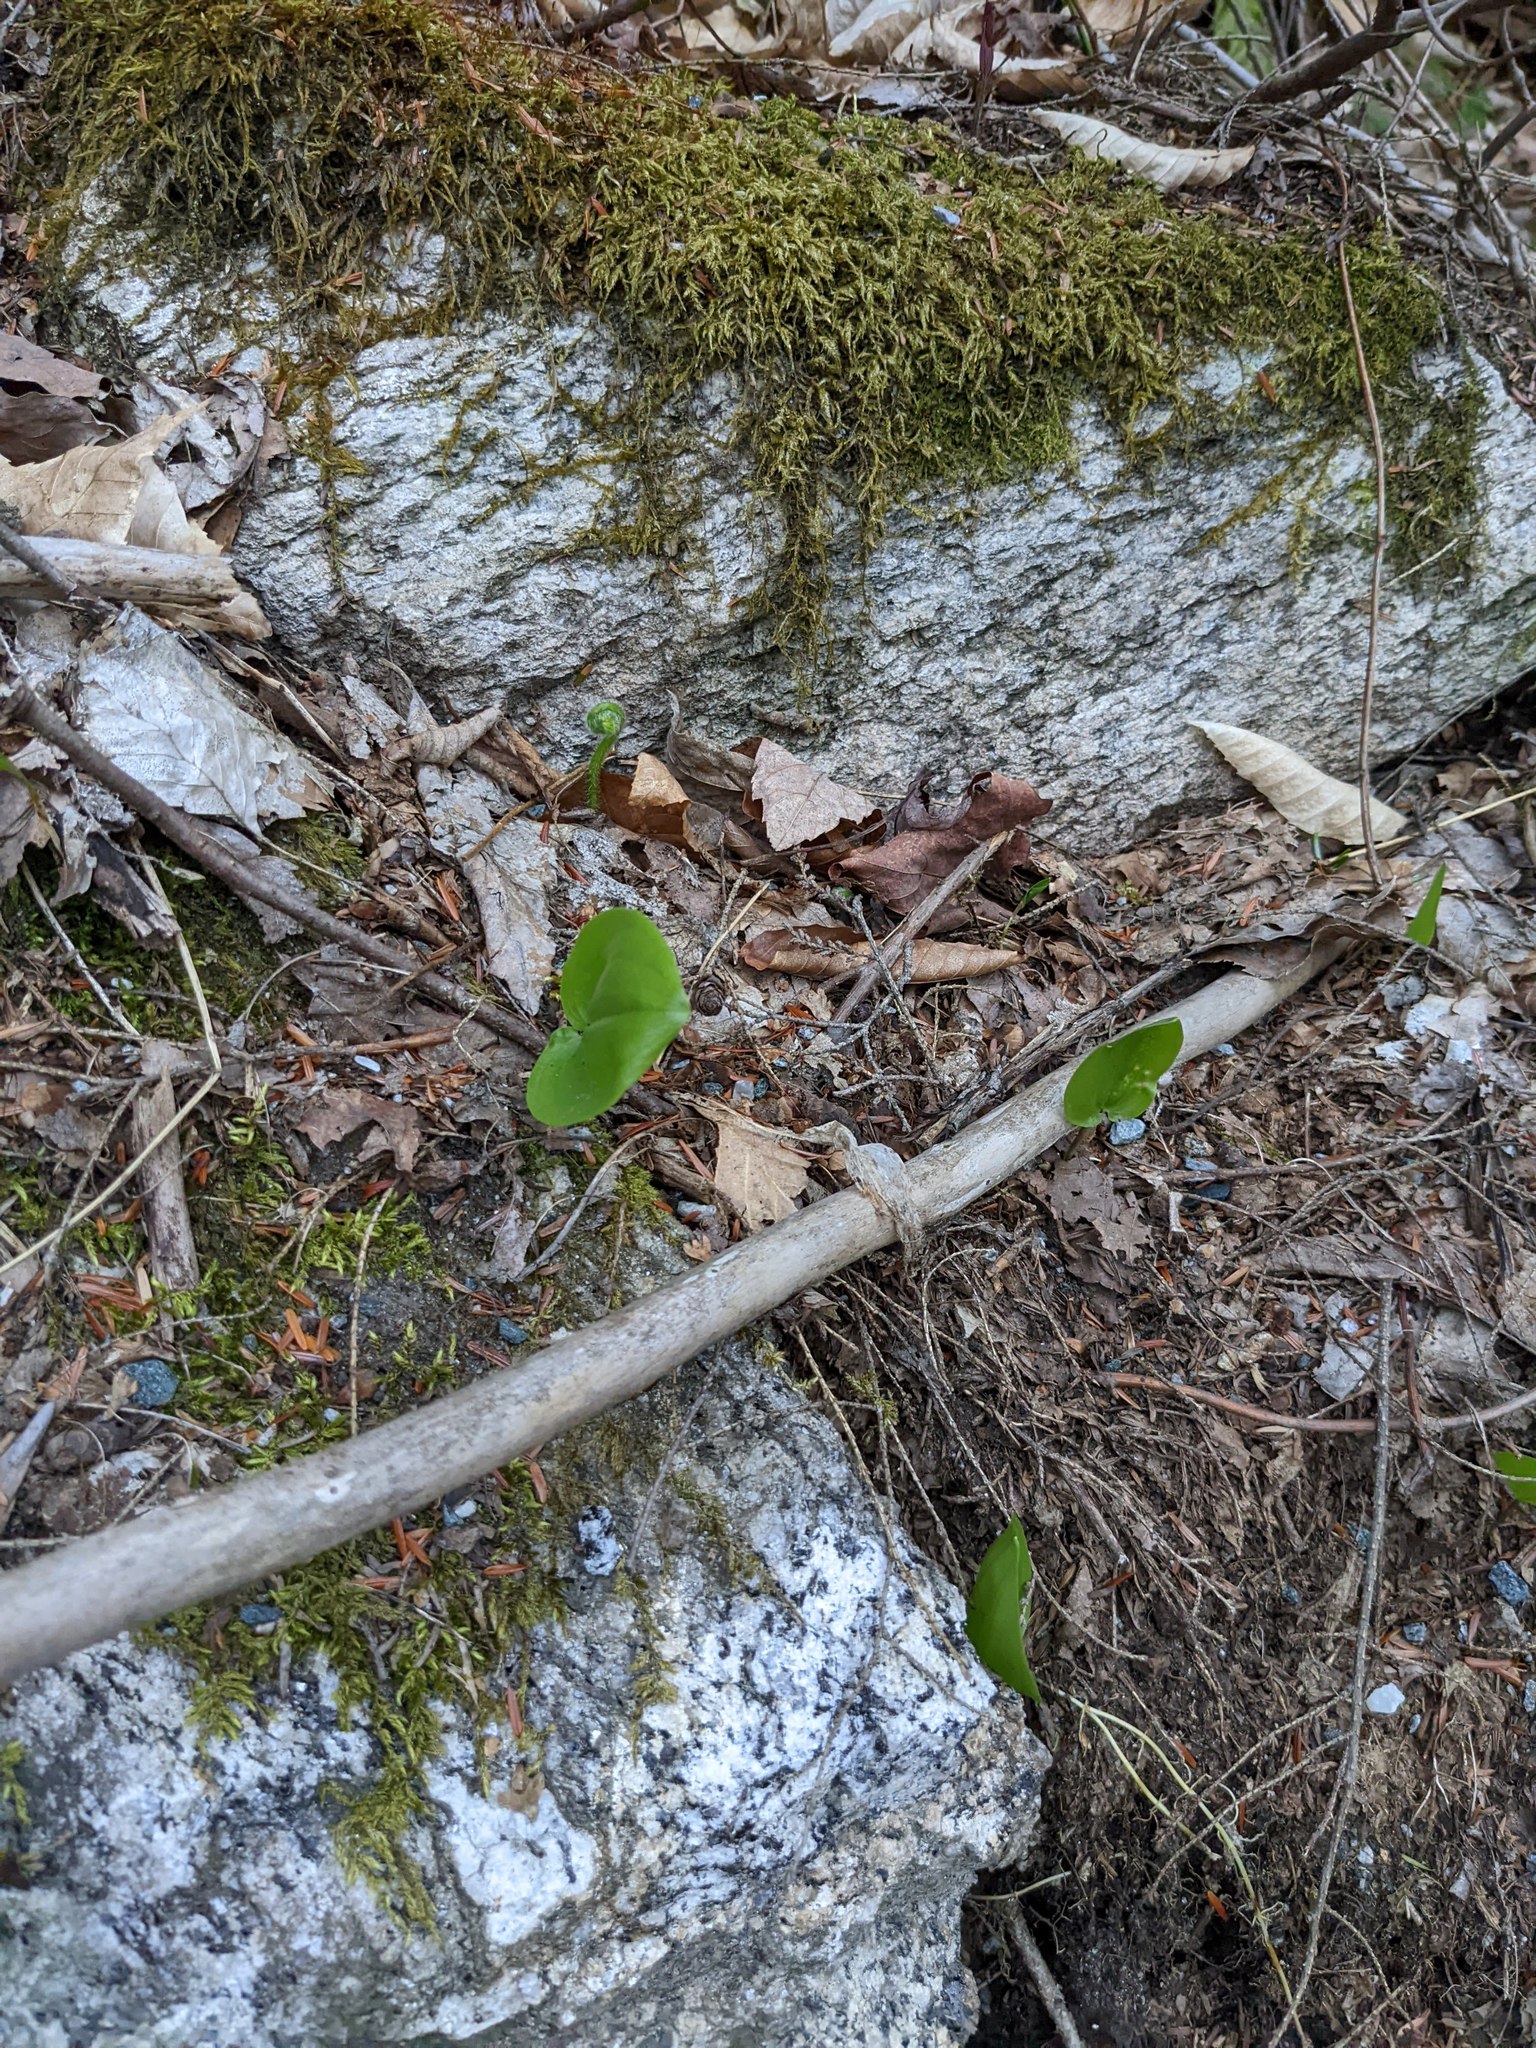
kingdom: Plantae
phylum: Tracheophyta
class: Liliopsida
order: Asparagales
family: Asparagaceae
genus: Maianthemum
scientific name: Maianthemum canadense
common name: False lily-of-the-valley
